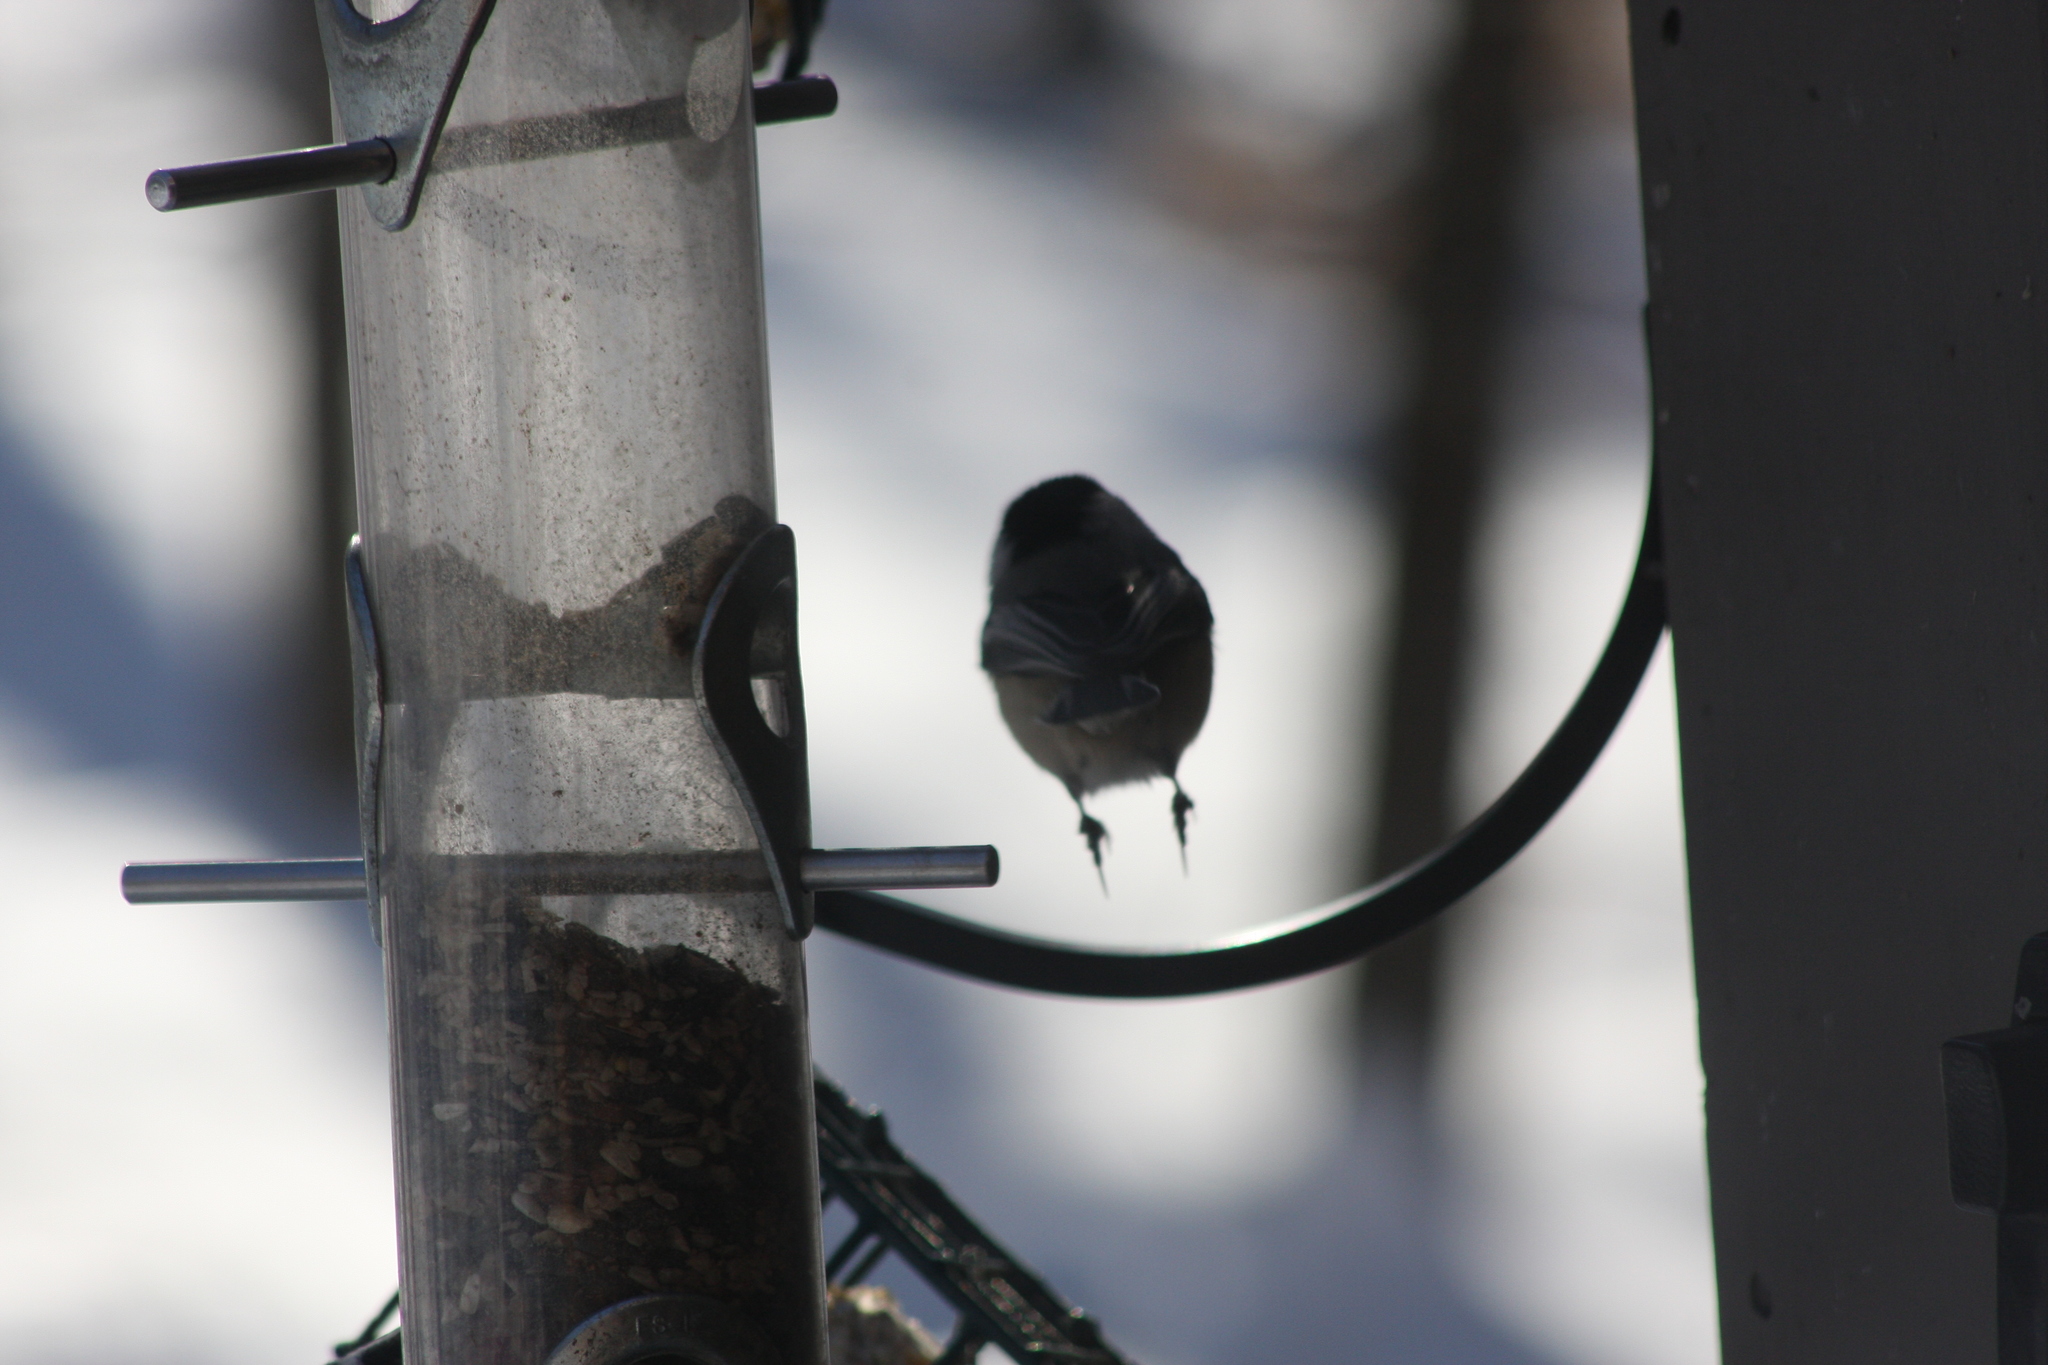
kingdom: Animalia
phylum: Chordata
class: Aves
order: Passeriformes
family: Paridae
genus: Poecile
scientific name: Poecile atricapillus
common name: Black-capped chickadee
